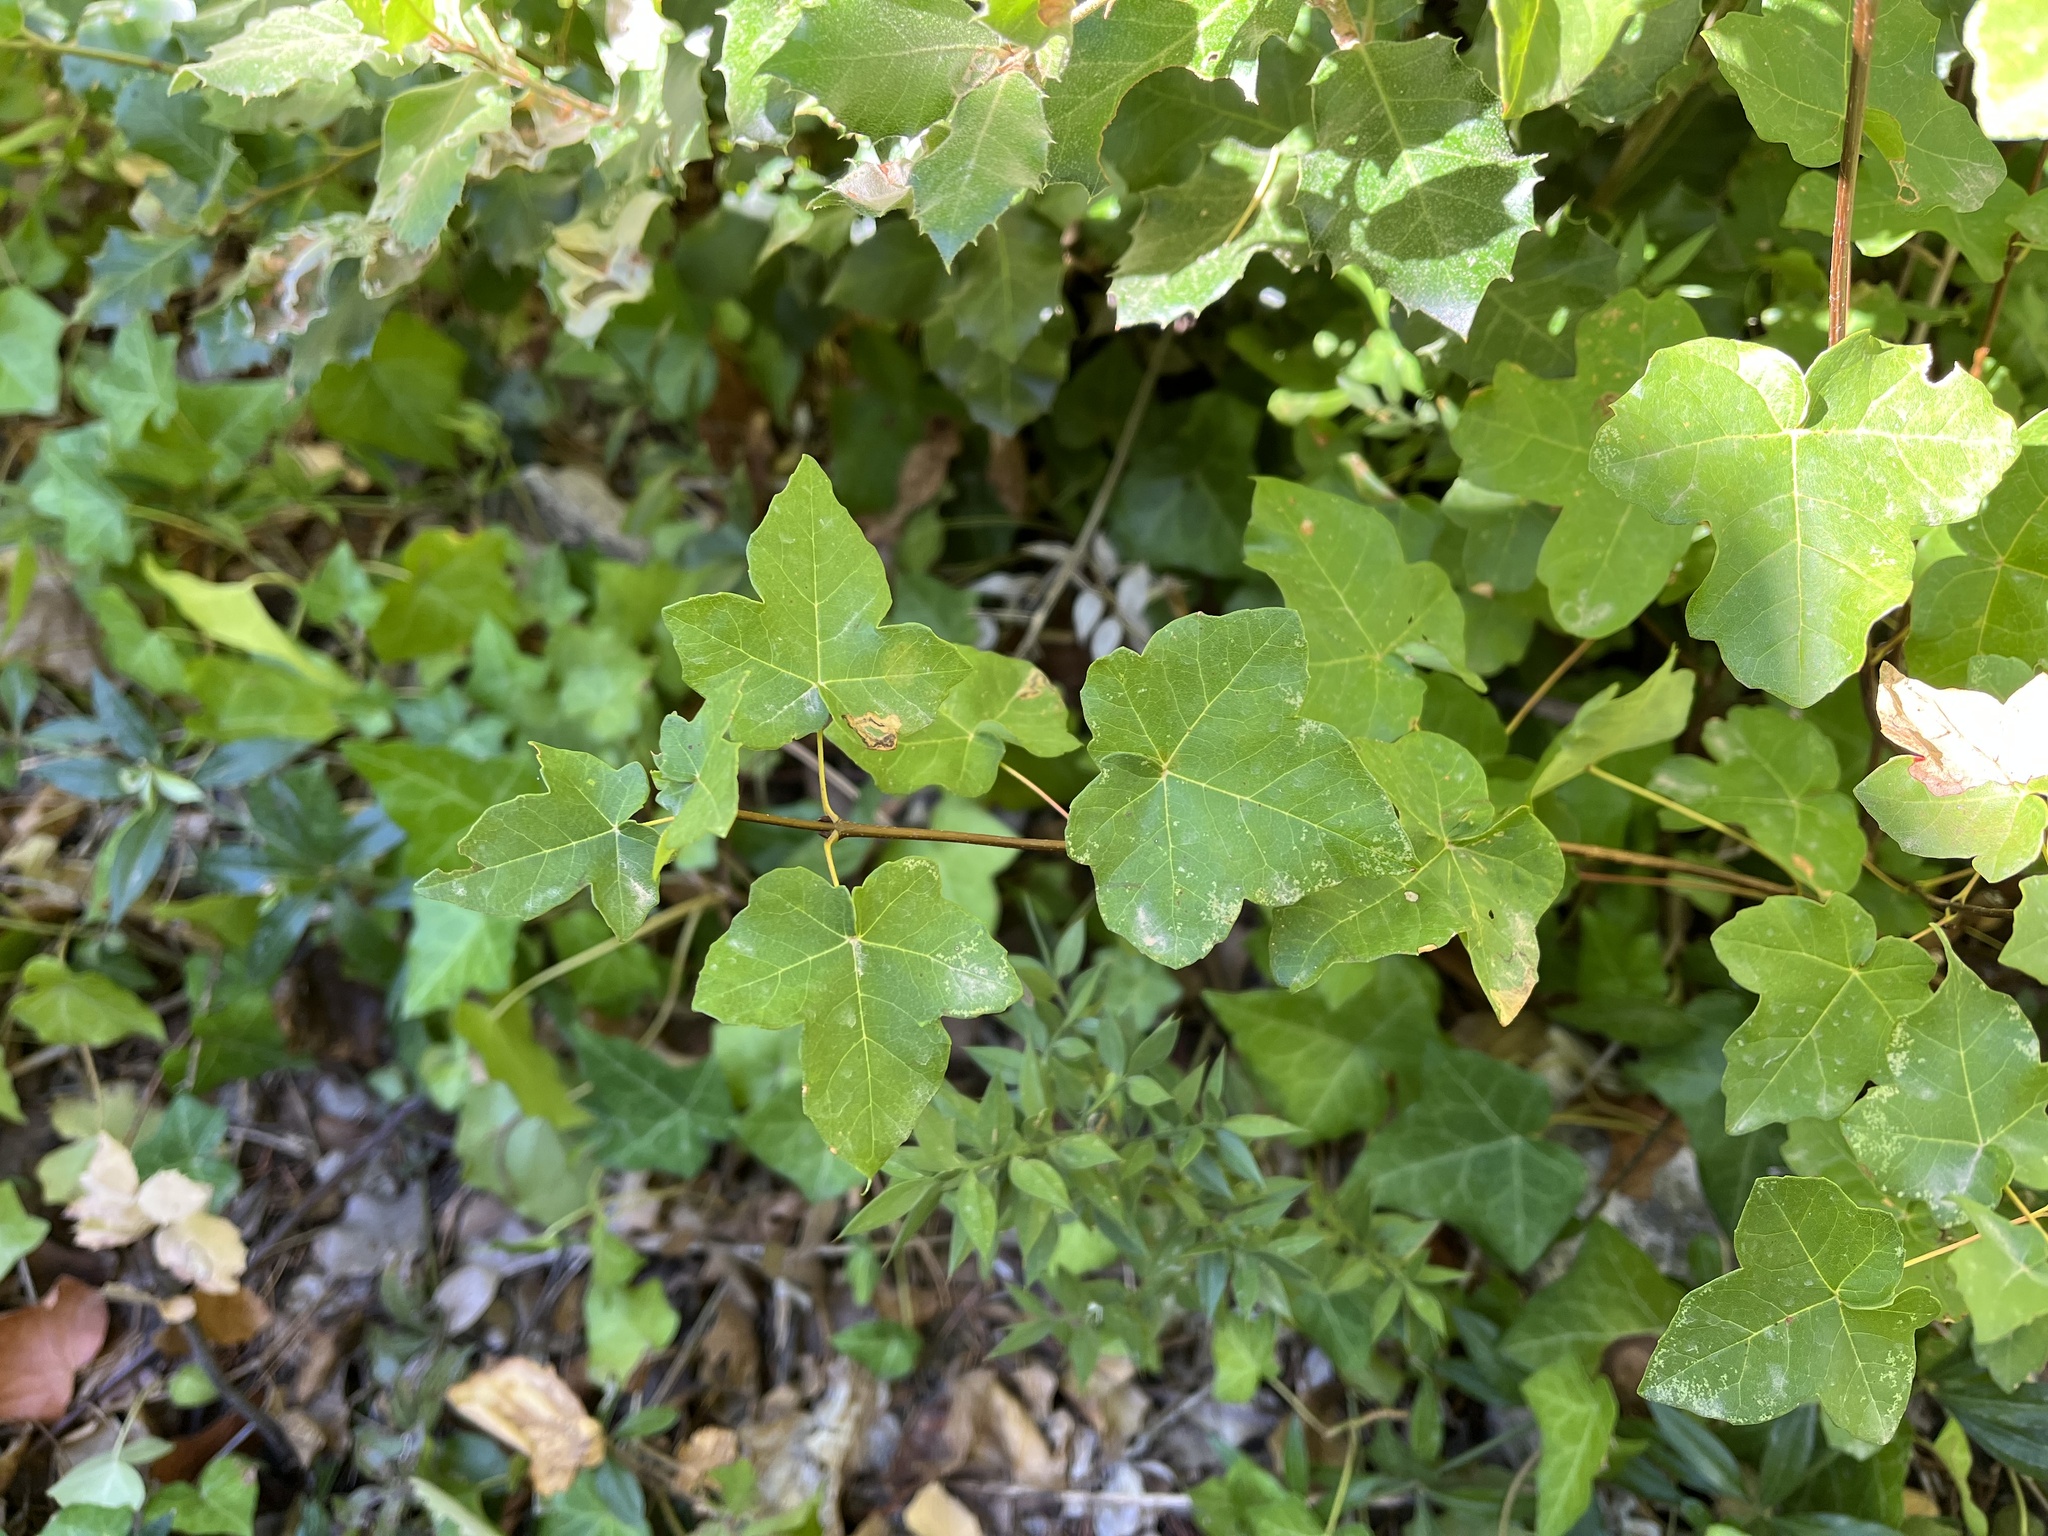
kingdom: Plantae
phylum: Tracheophyta
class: Magnoliopsida
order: Sapindales
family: Sapindaceae
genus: Acer
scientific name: Acer monspessulanum
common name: Montpellier maple
